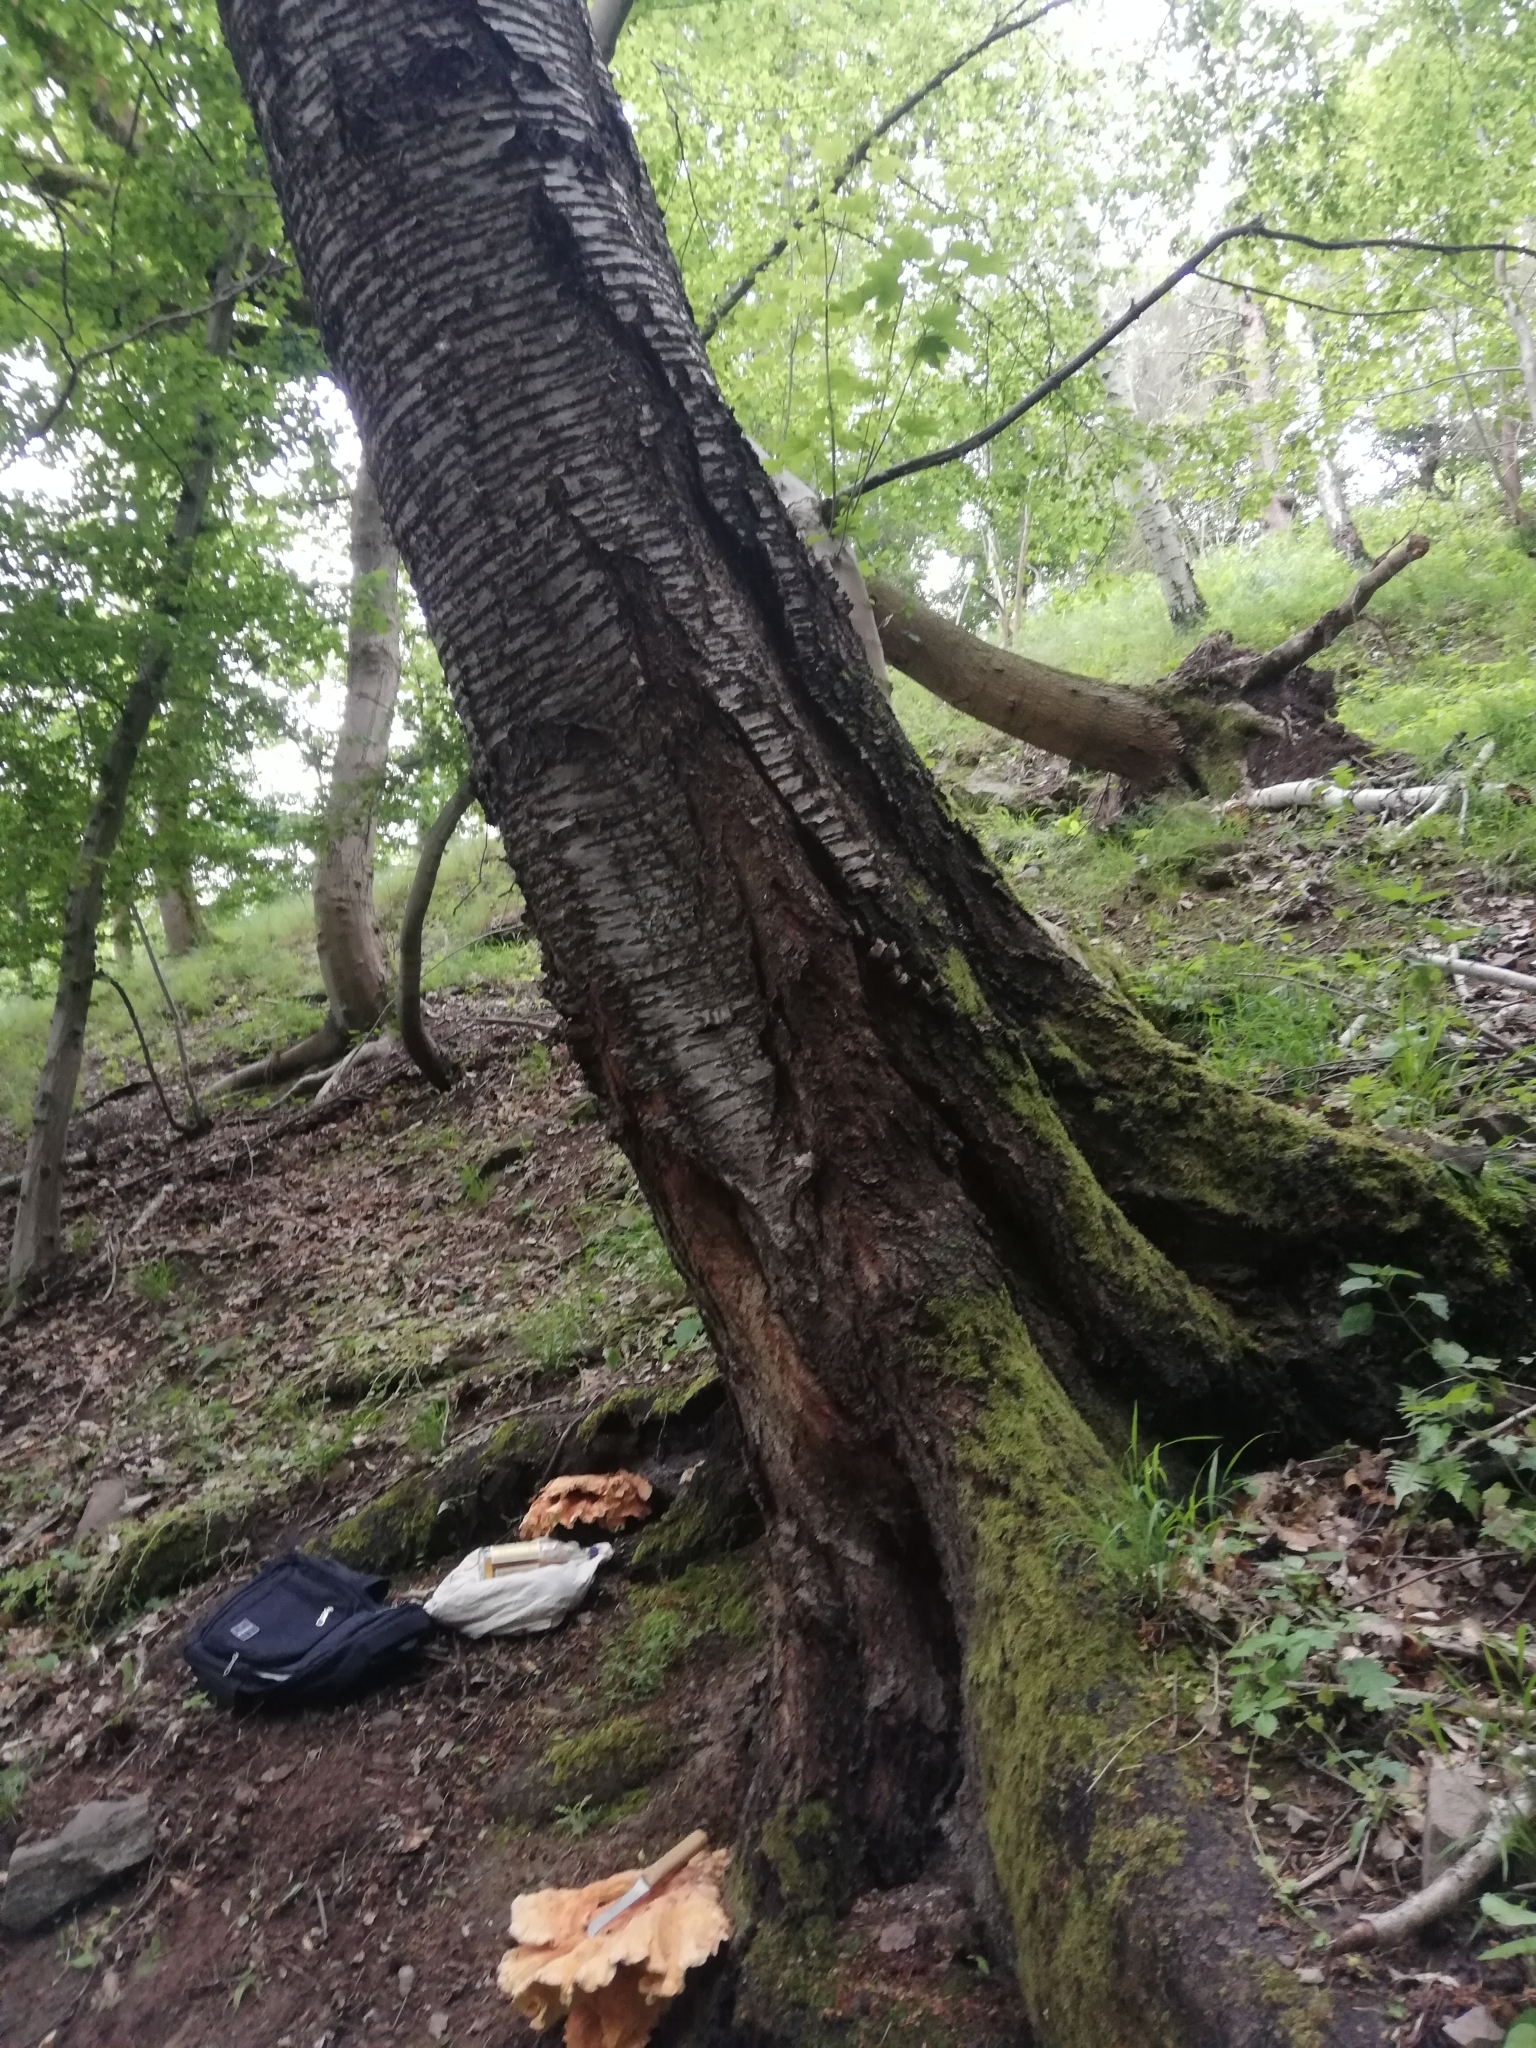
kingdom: Fungi
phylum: Basidiomycota
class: Agaricomycetes
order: Polyporales
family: Laetiporaceae
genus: Laetiporus
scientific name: Laetiporus sulphureus
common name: Chicken of the woods
